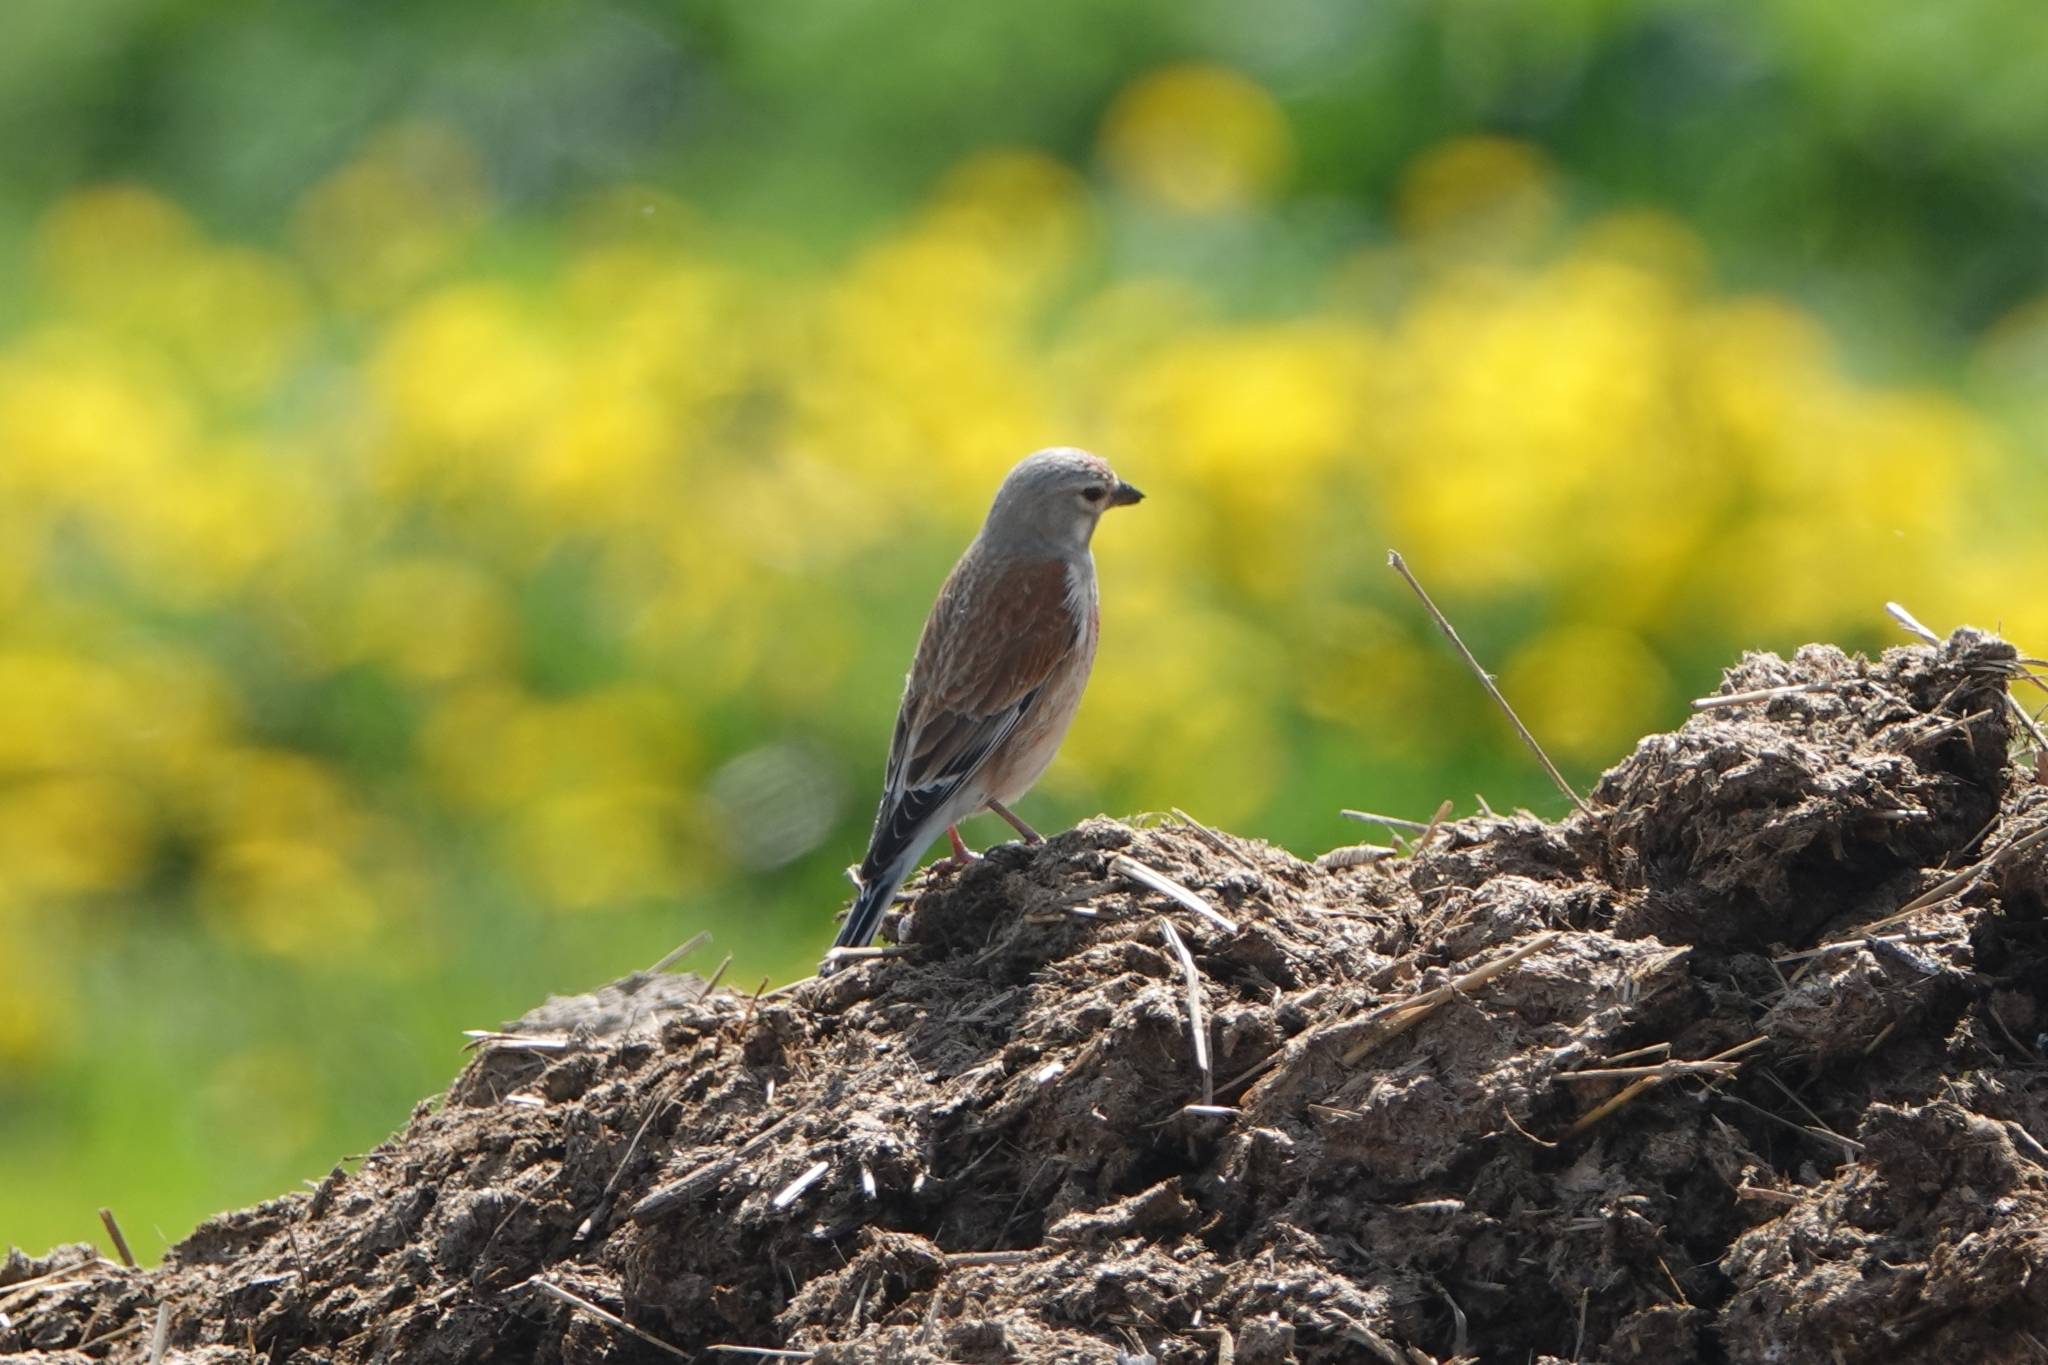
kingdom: Animalia
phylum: Chordata
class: Aves
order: Passeriformes
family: Fringillidae
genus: Linaria
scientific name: Linaria cannabina
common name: Common linnet
